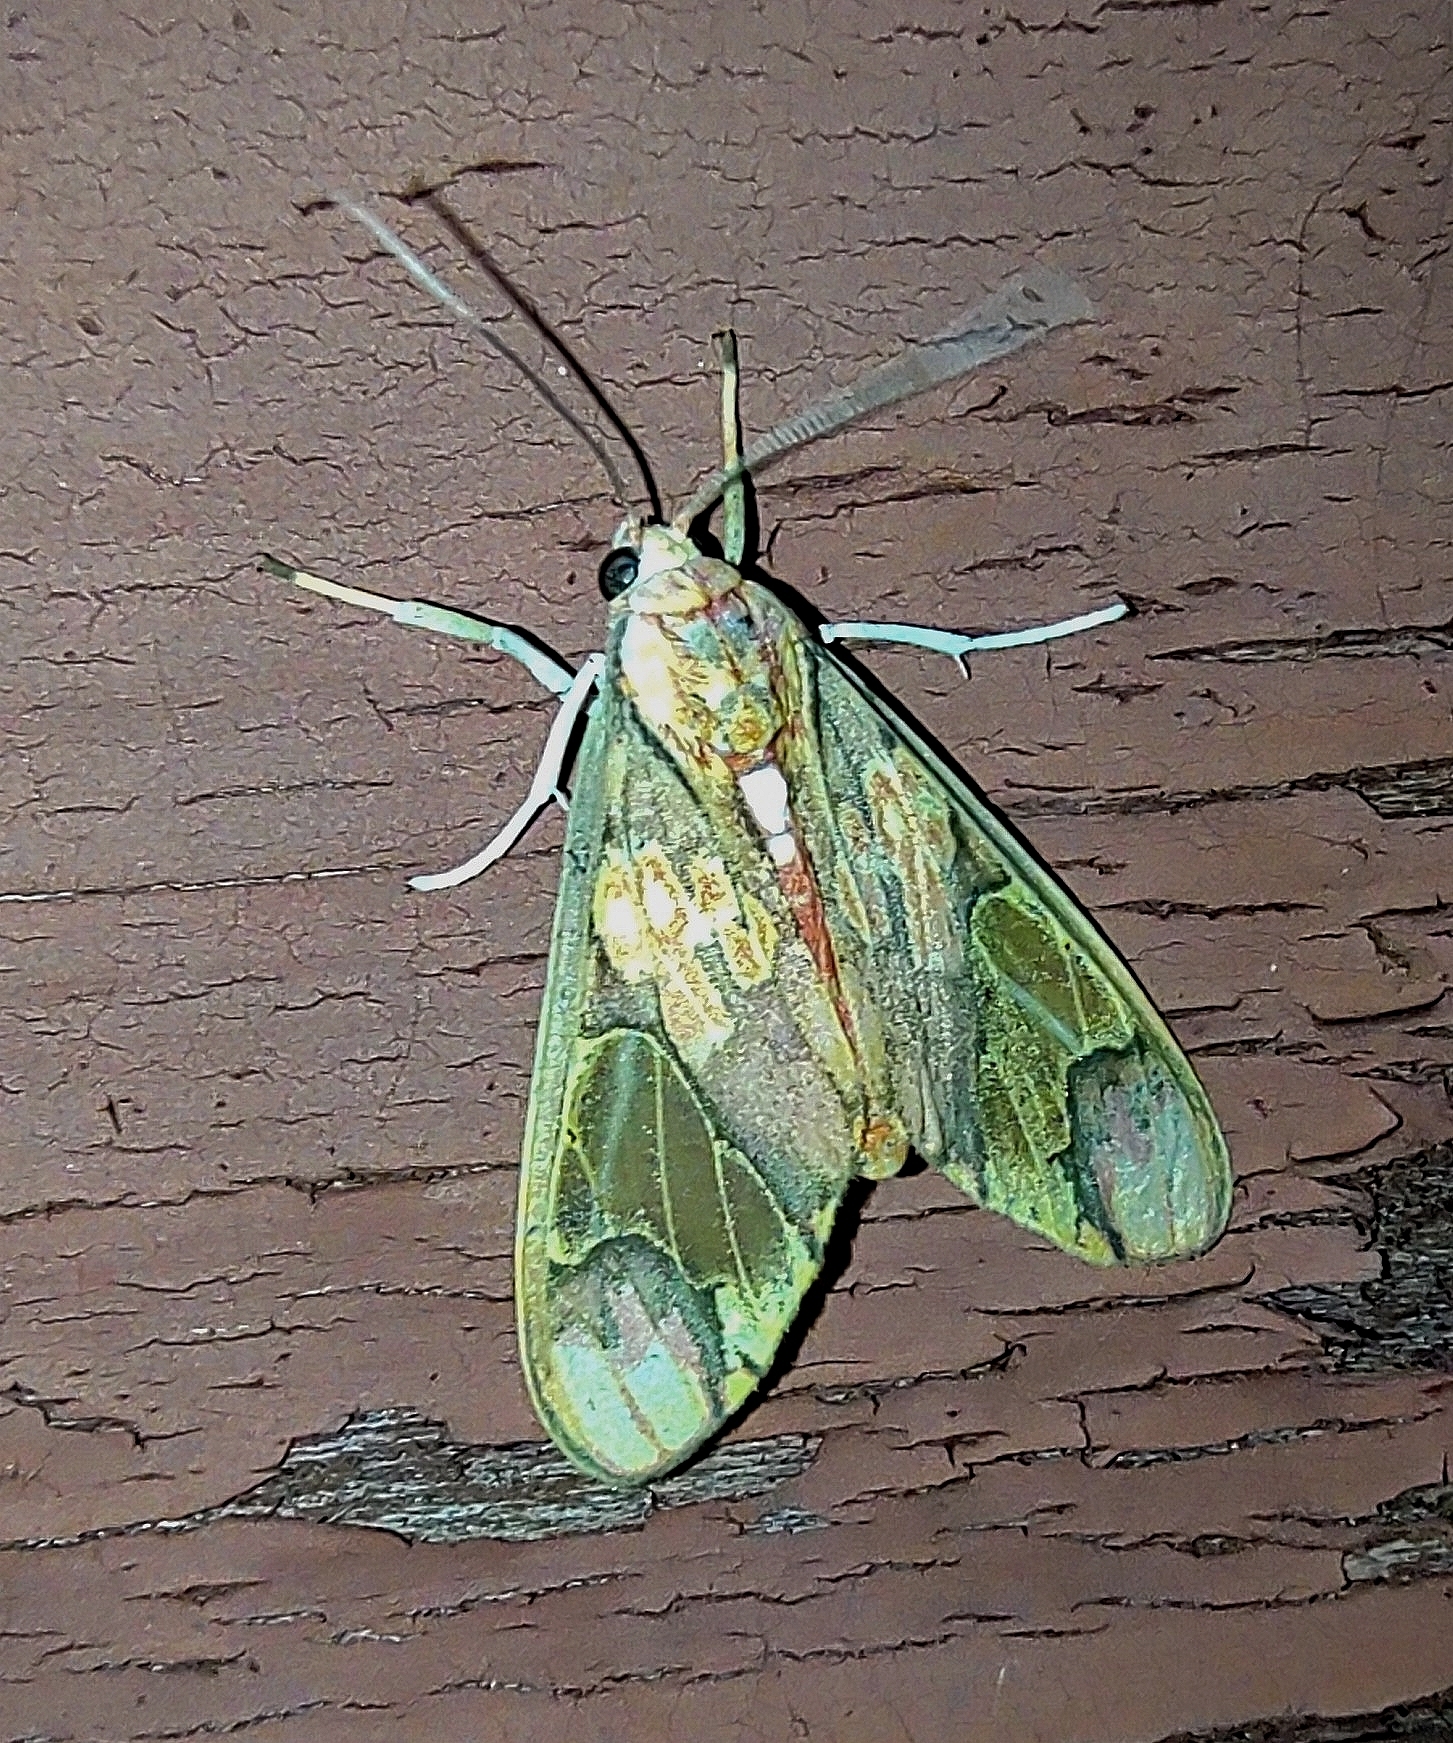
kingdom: Animalia
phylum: Arthropoda
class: Insecta
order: Lepidoptera
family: Erebidae
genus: Neonerita
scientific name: Neonerita dorsipuncta
